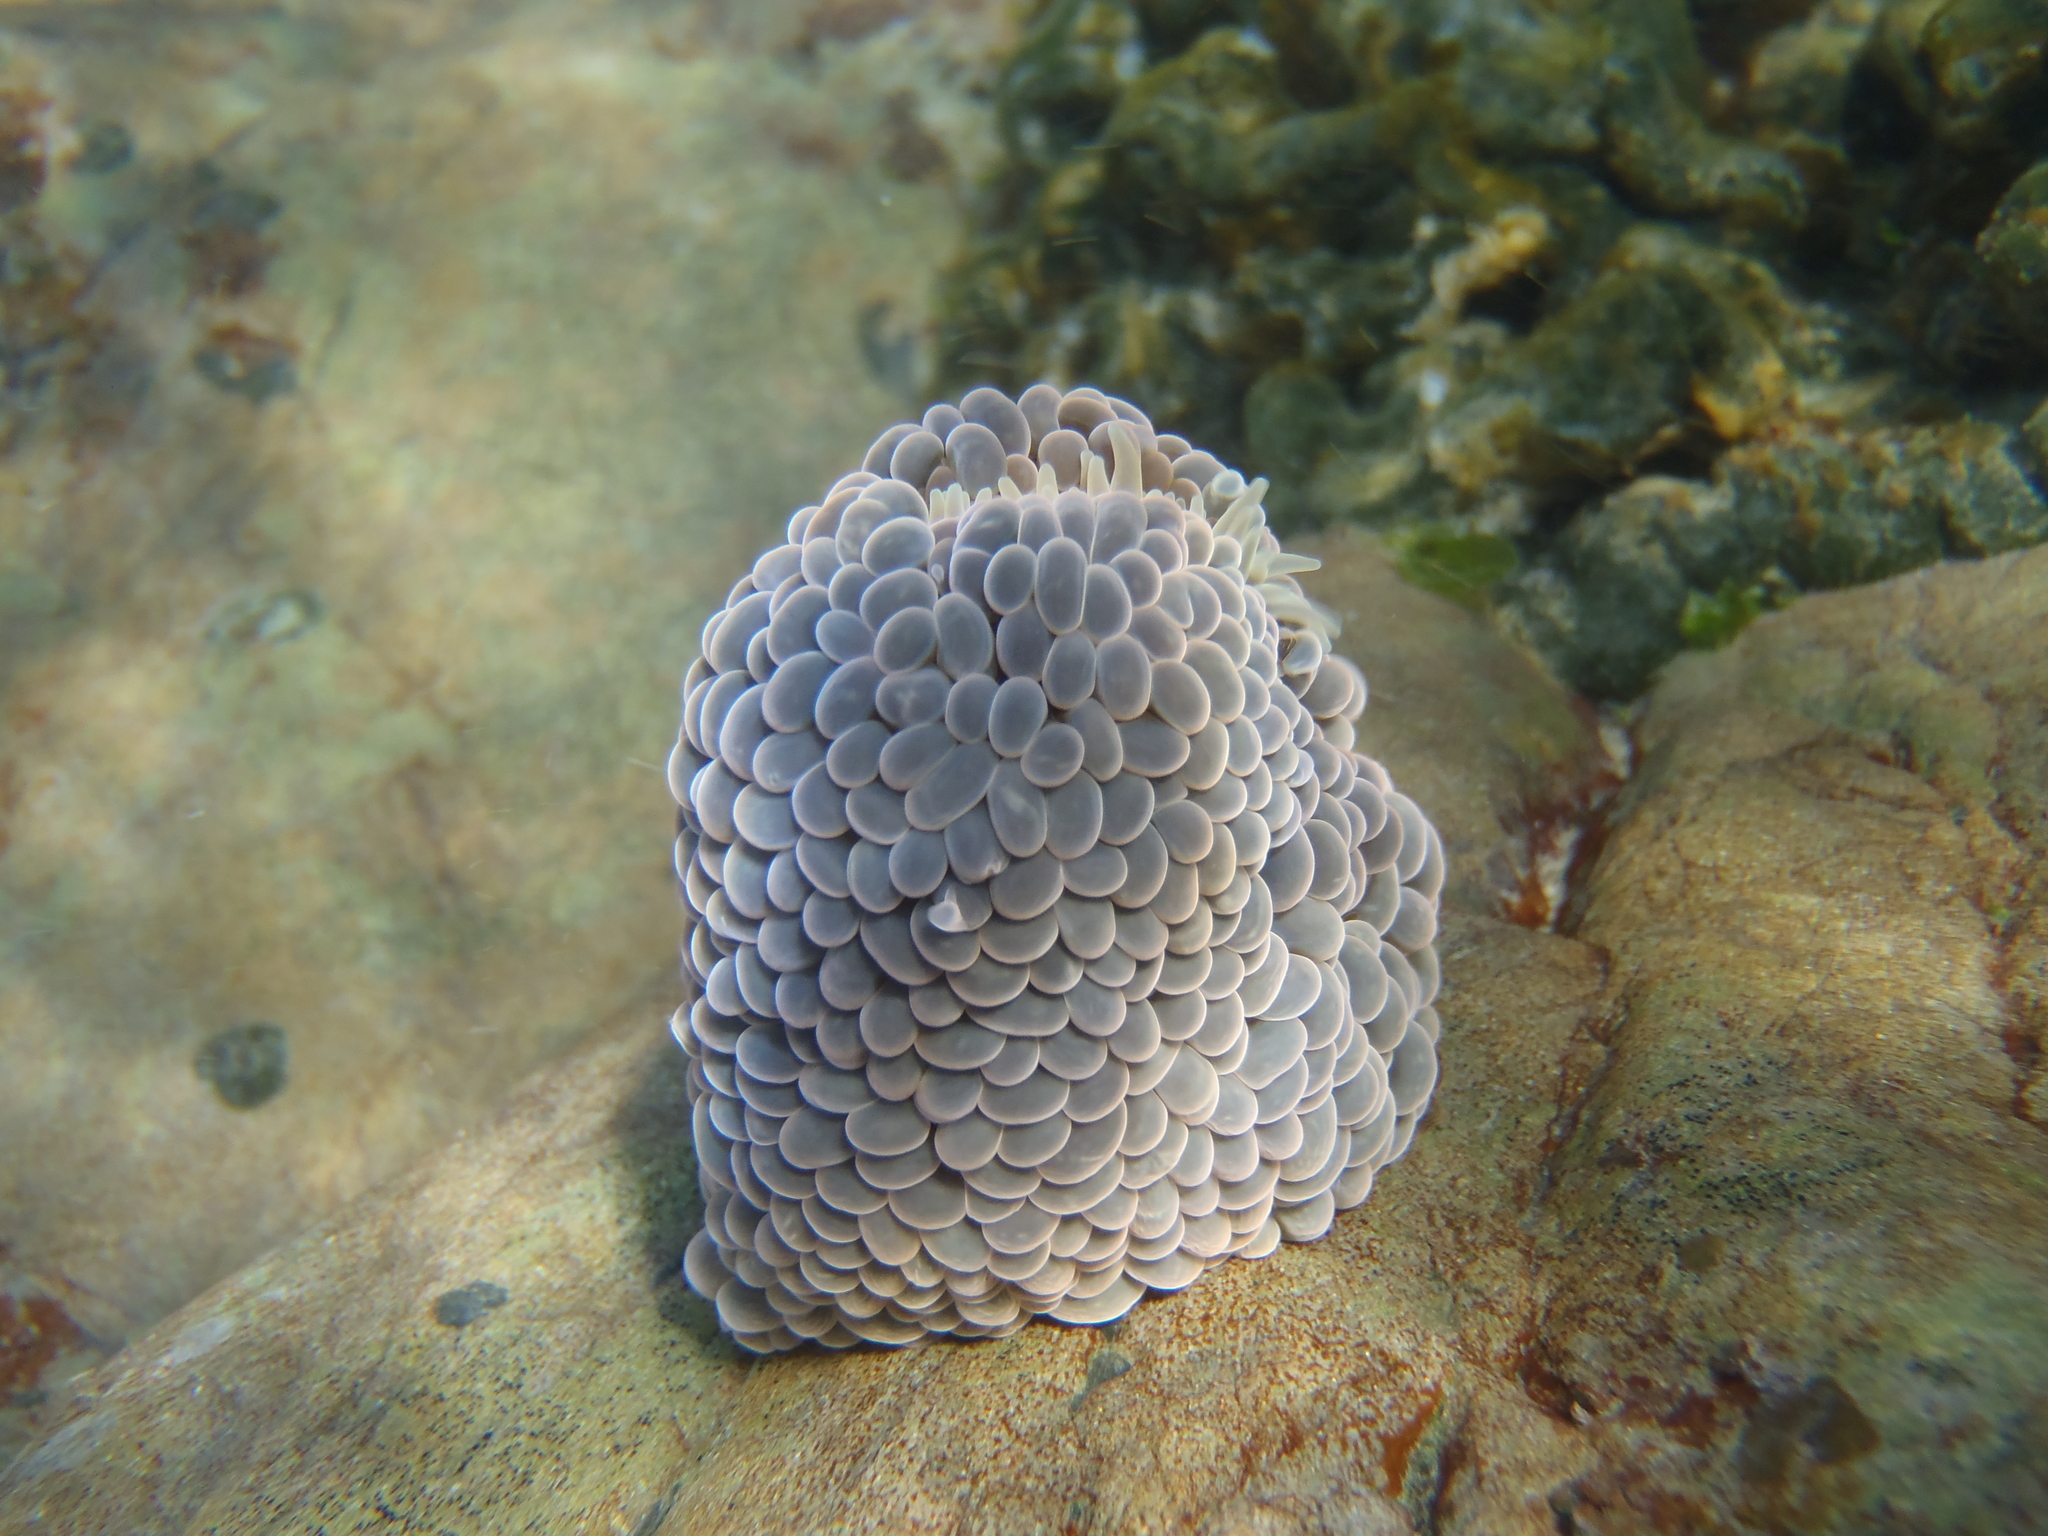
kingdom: Animalia
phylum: Cnidaria
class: Anthozoa
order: Actiniaria
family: Actiniidae
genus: Phlyctenactis
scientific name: Phlyctenactis tuberculosa
